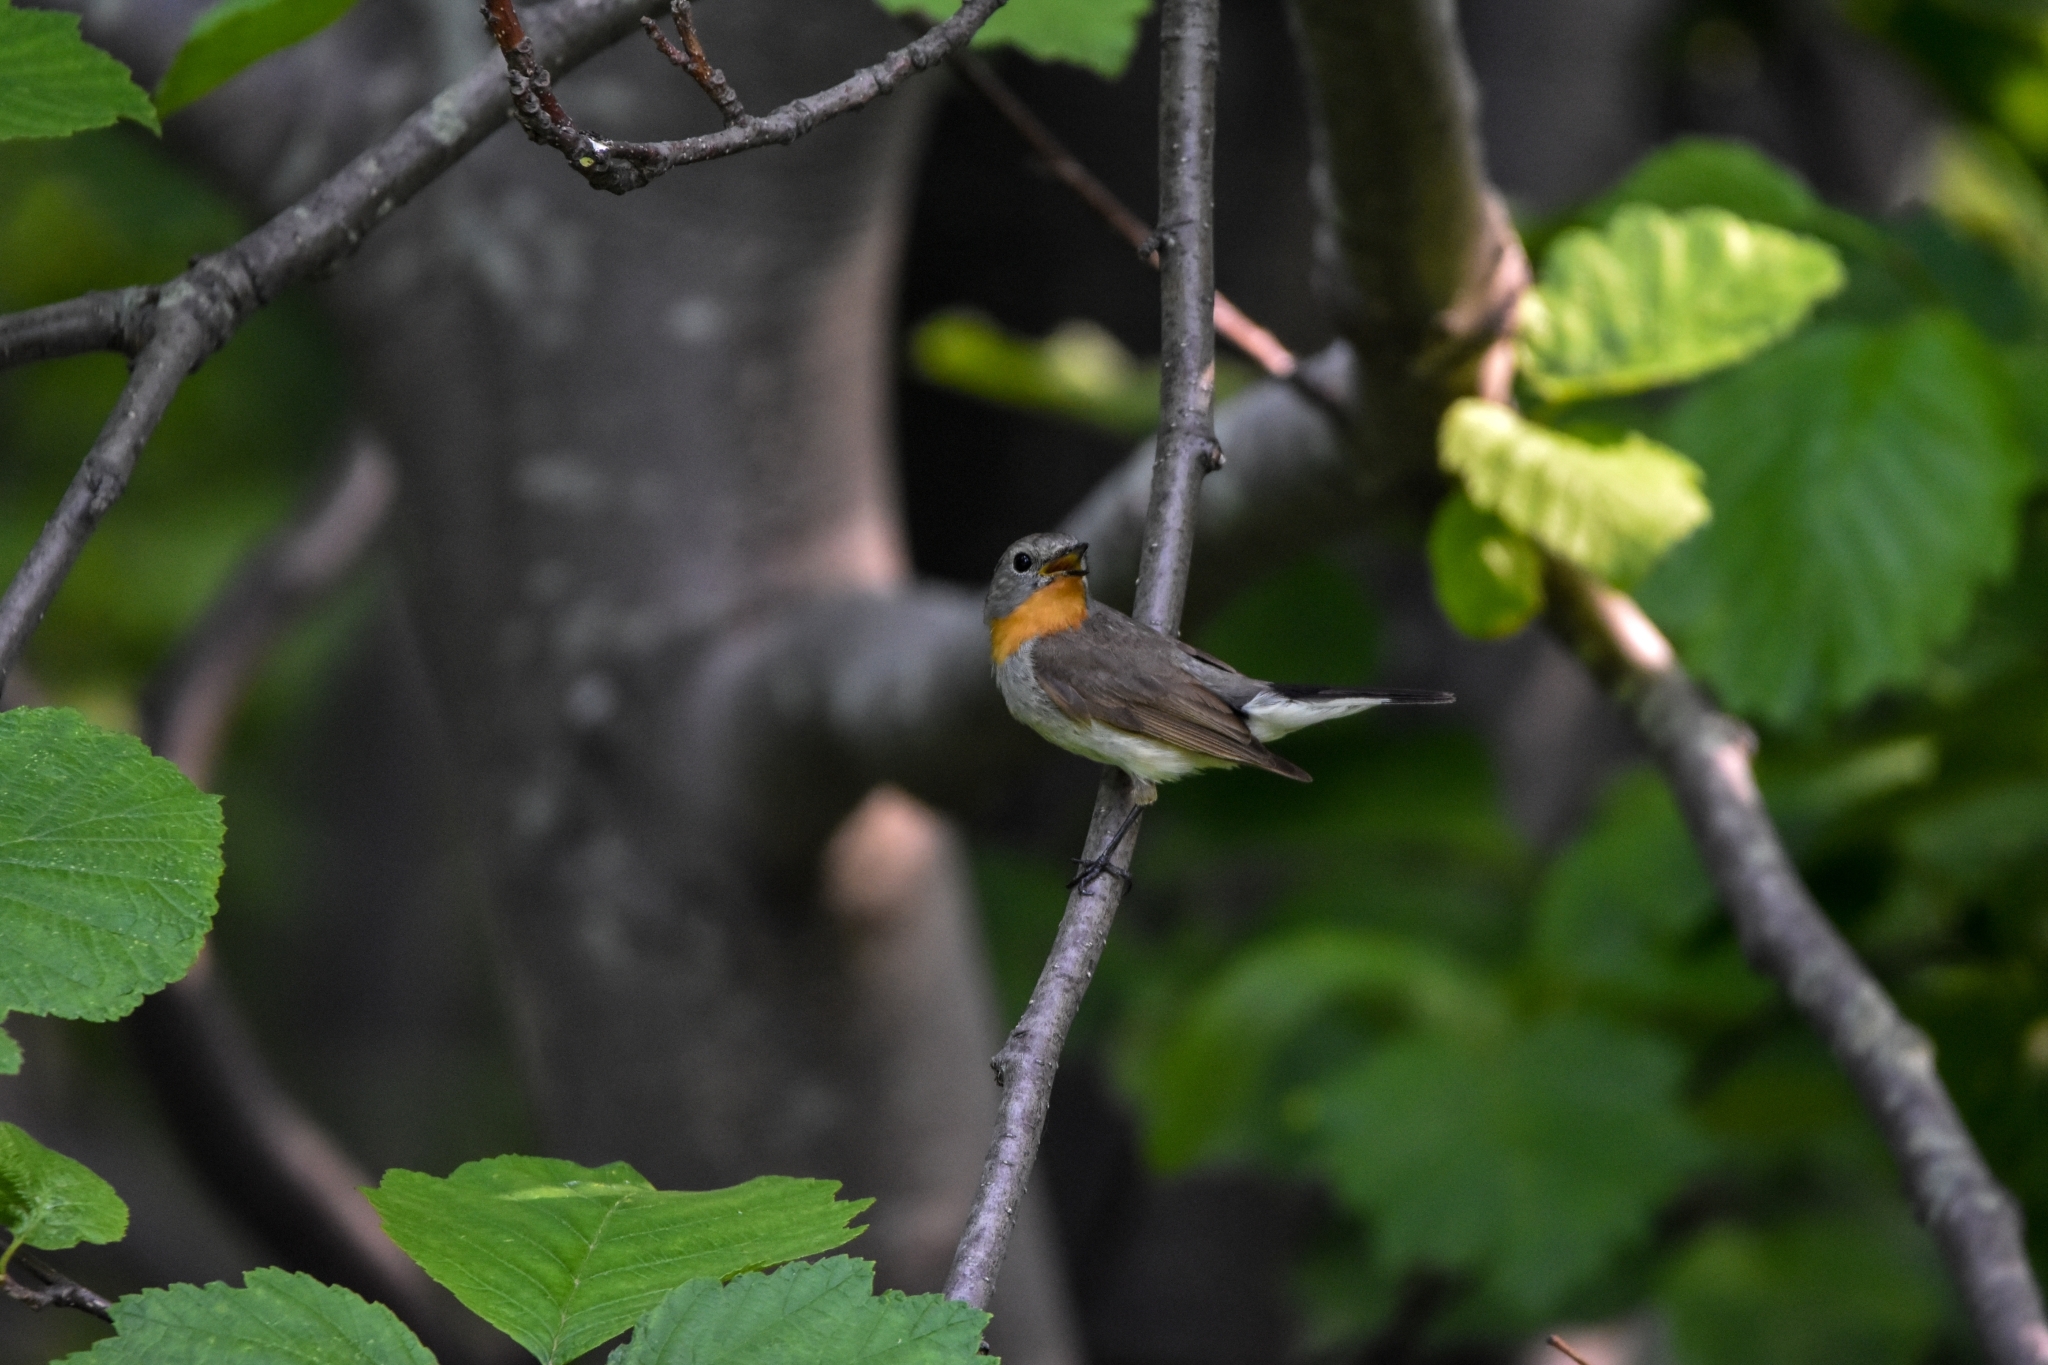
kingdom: Animalia
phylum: Chordata
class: Aves
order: Passeriformes
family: Muscicapidae
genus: Ficedula
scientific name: Ficedula albicilla
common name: Taiga flycatcher
